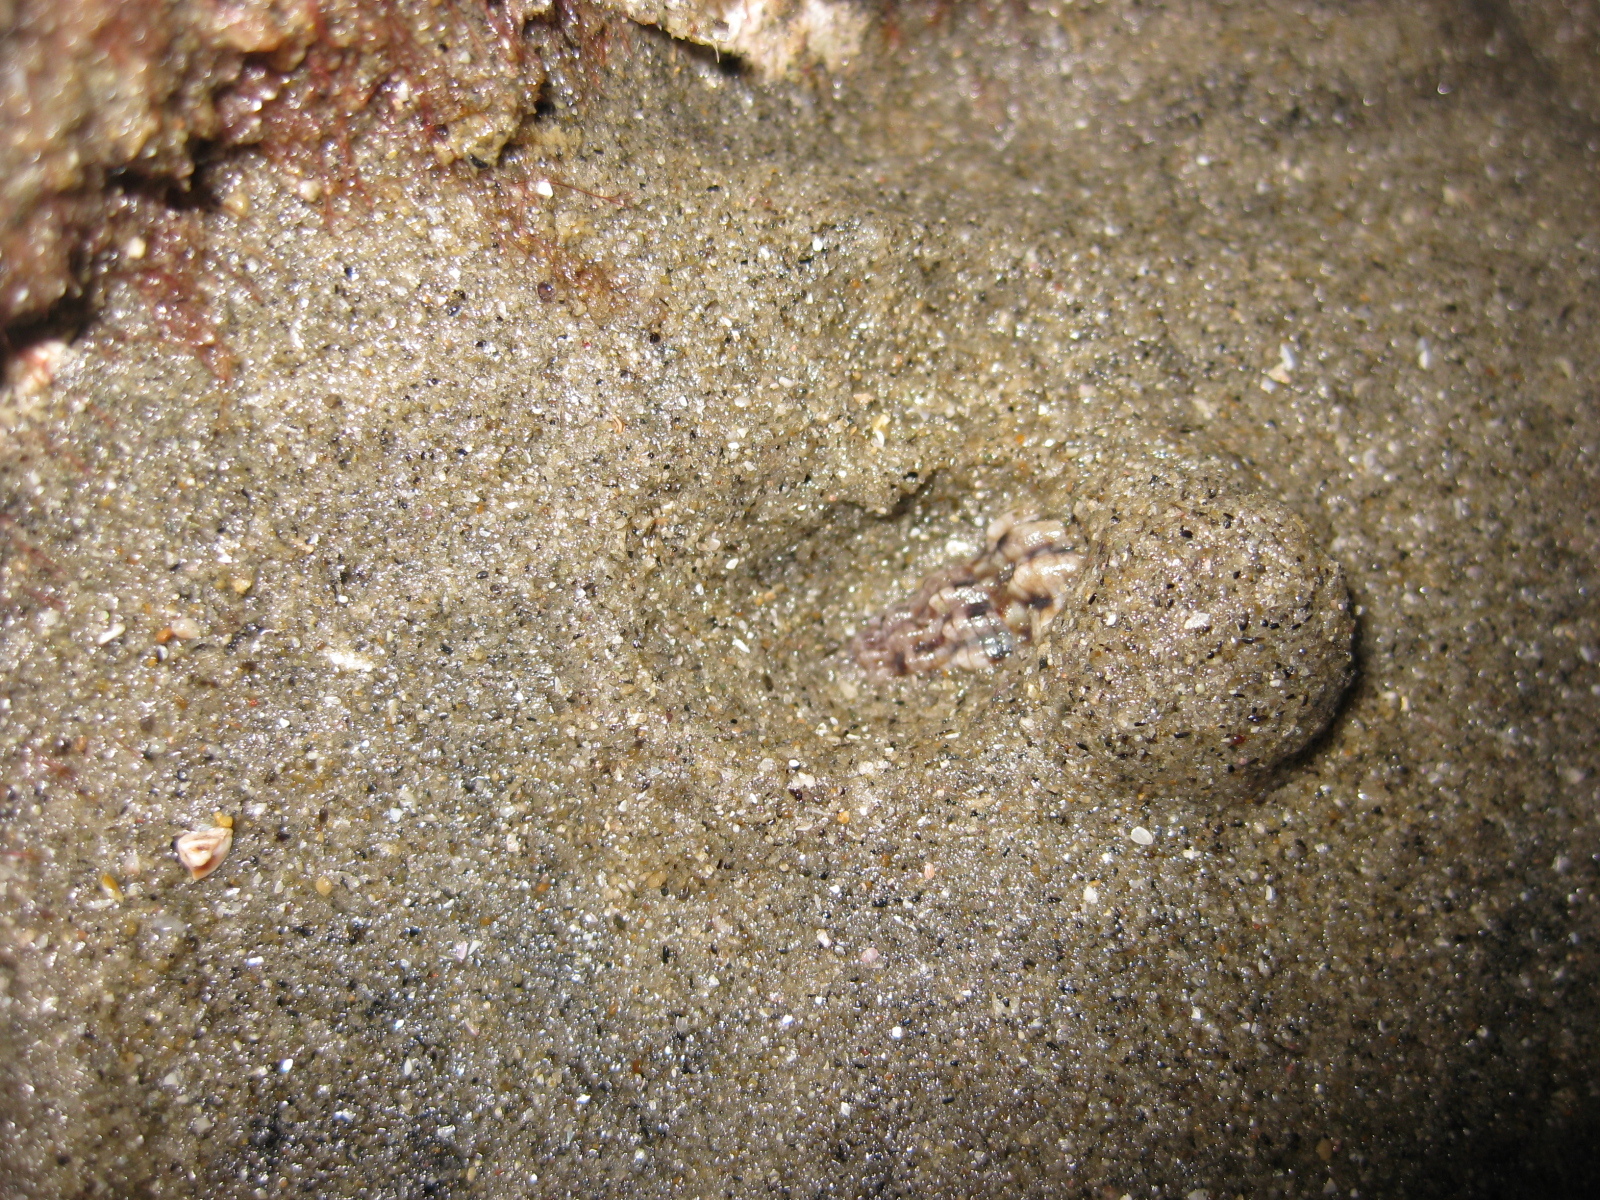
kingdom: Animalia
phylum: Mollusca
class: Gastropoda
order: Neogastropoda
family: Cominellidae
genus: Cominella
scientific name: Cominella quoyana
